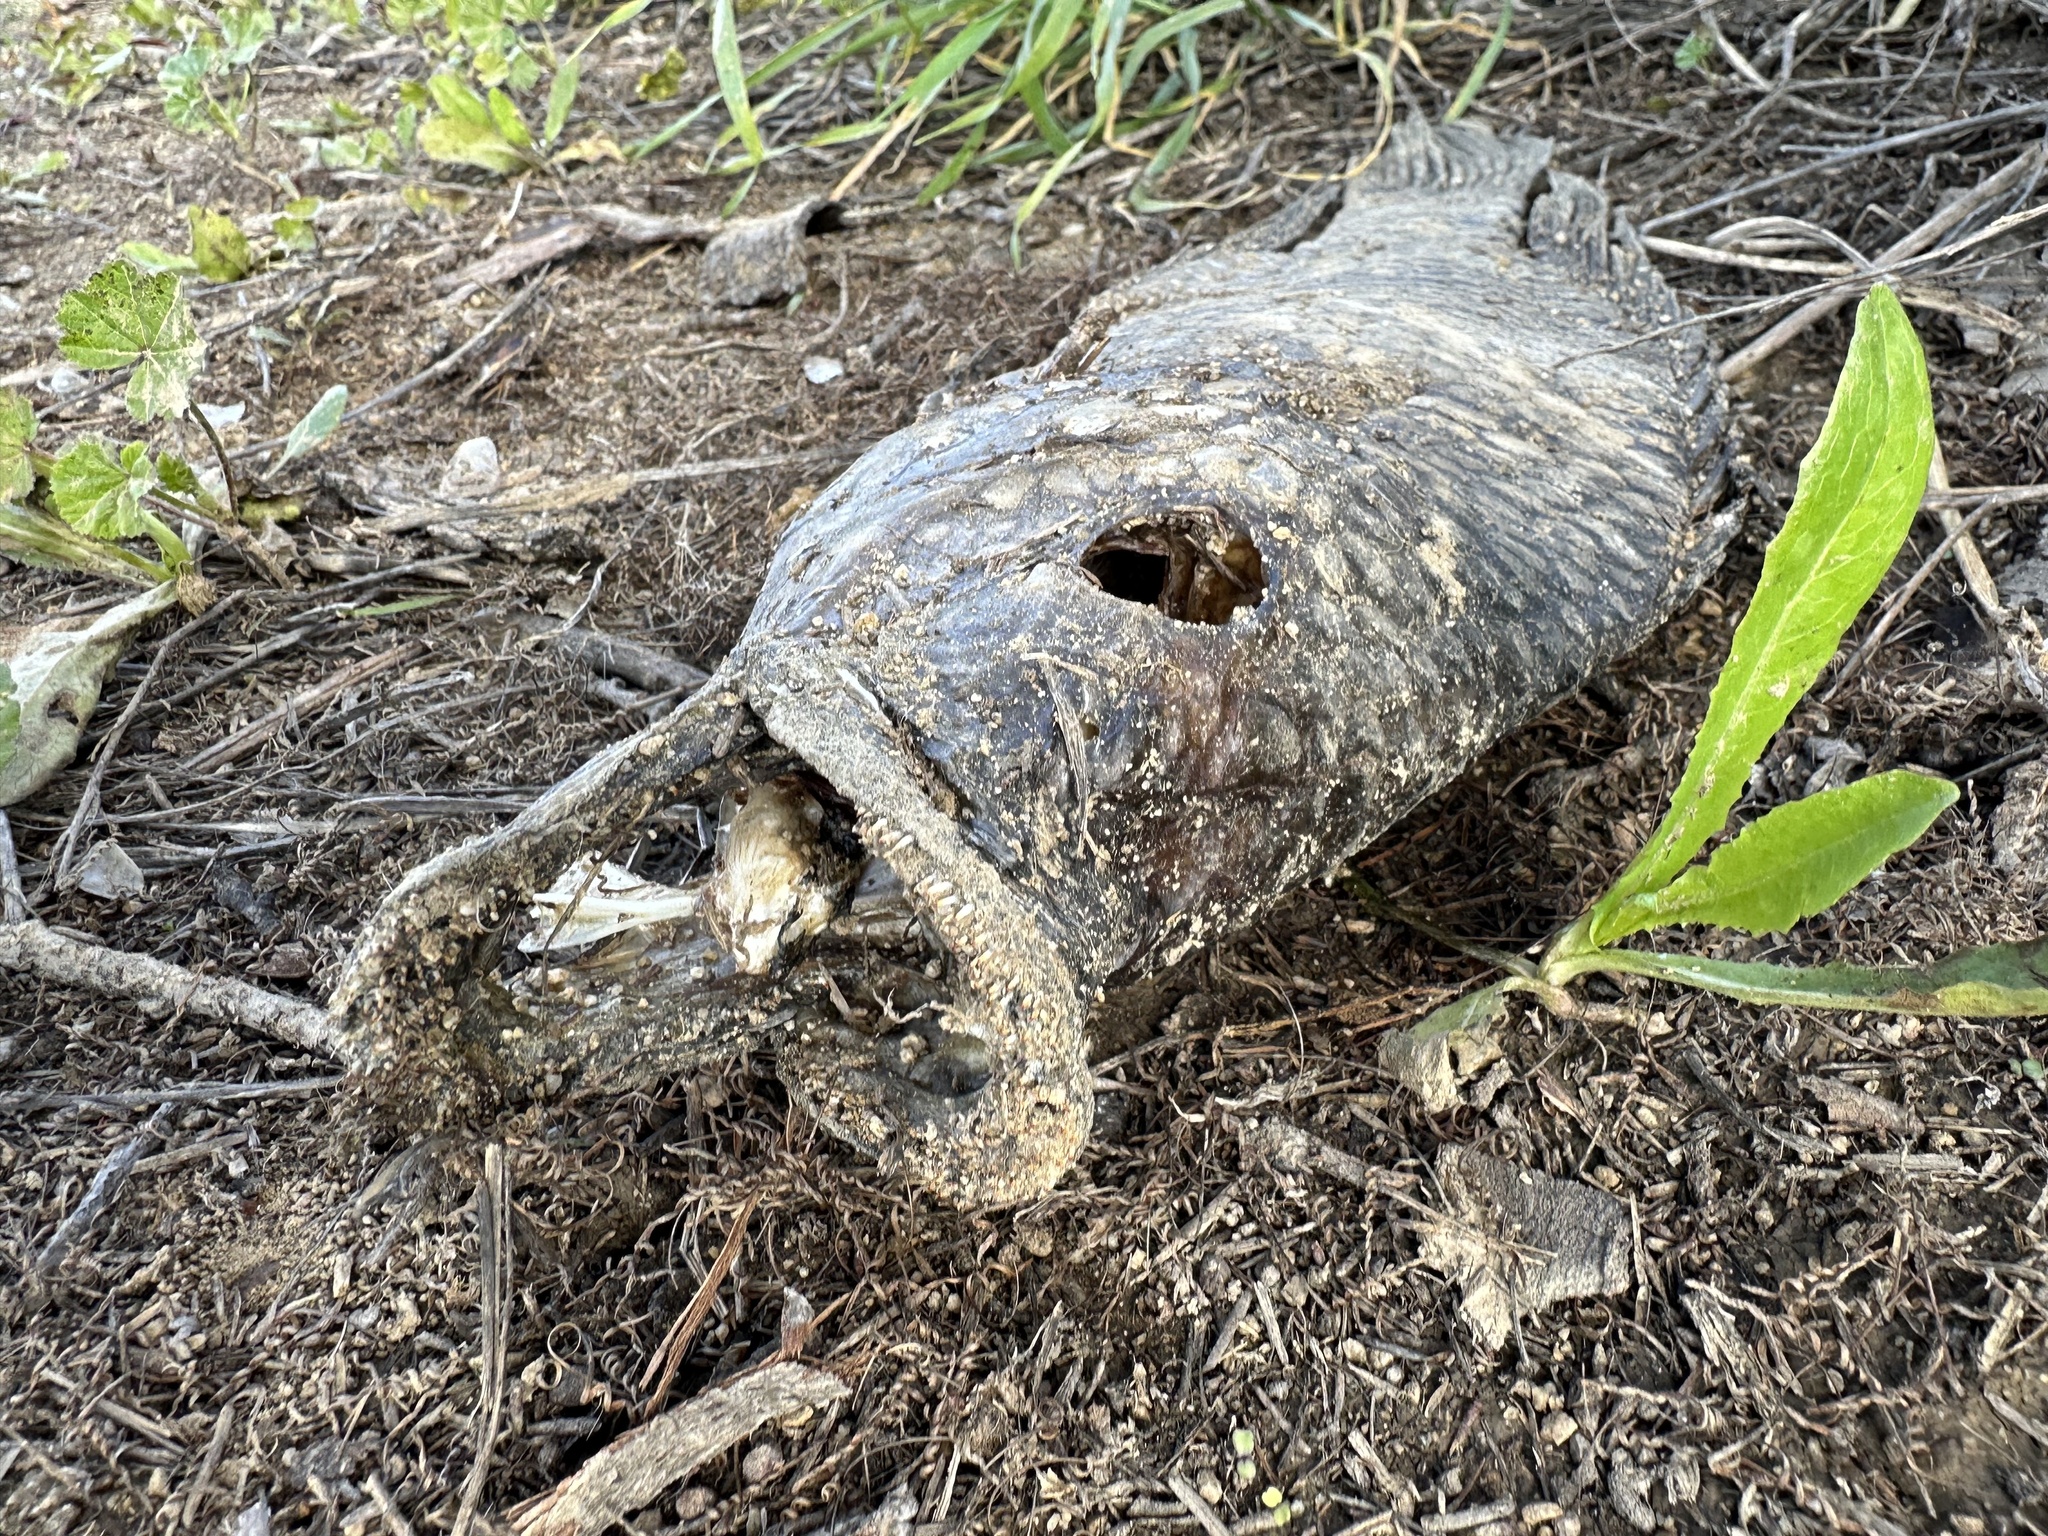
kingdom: Animalia
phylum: Chordata
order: Perciformes
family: Cichlidae
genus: Oreochromis
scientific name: Oreochromis mossambicus
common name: Mozambique tilapia
